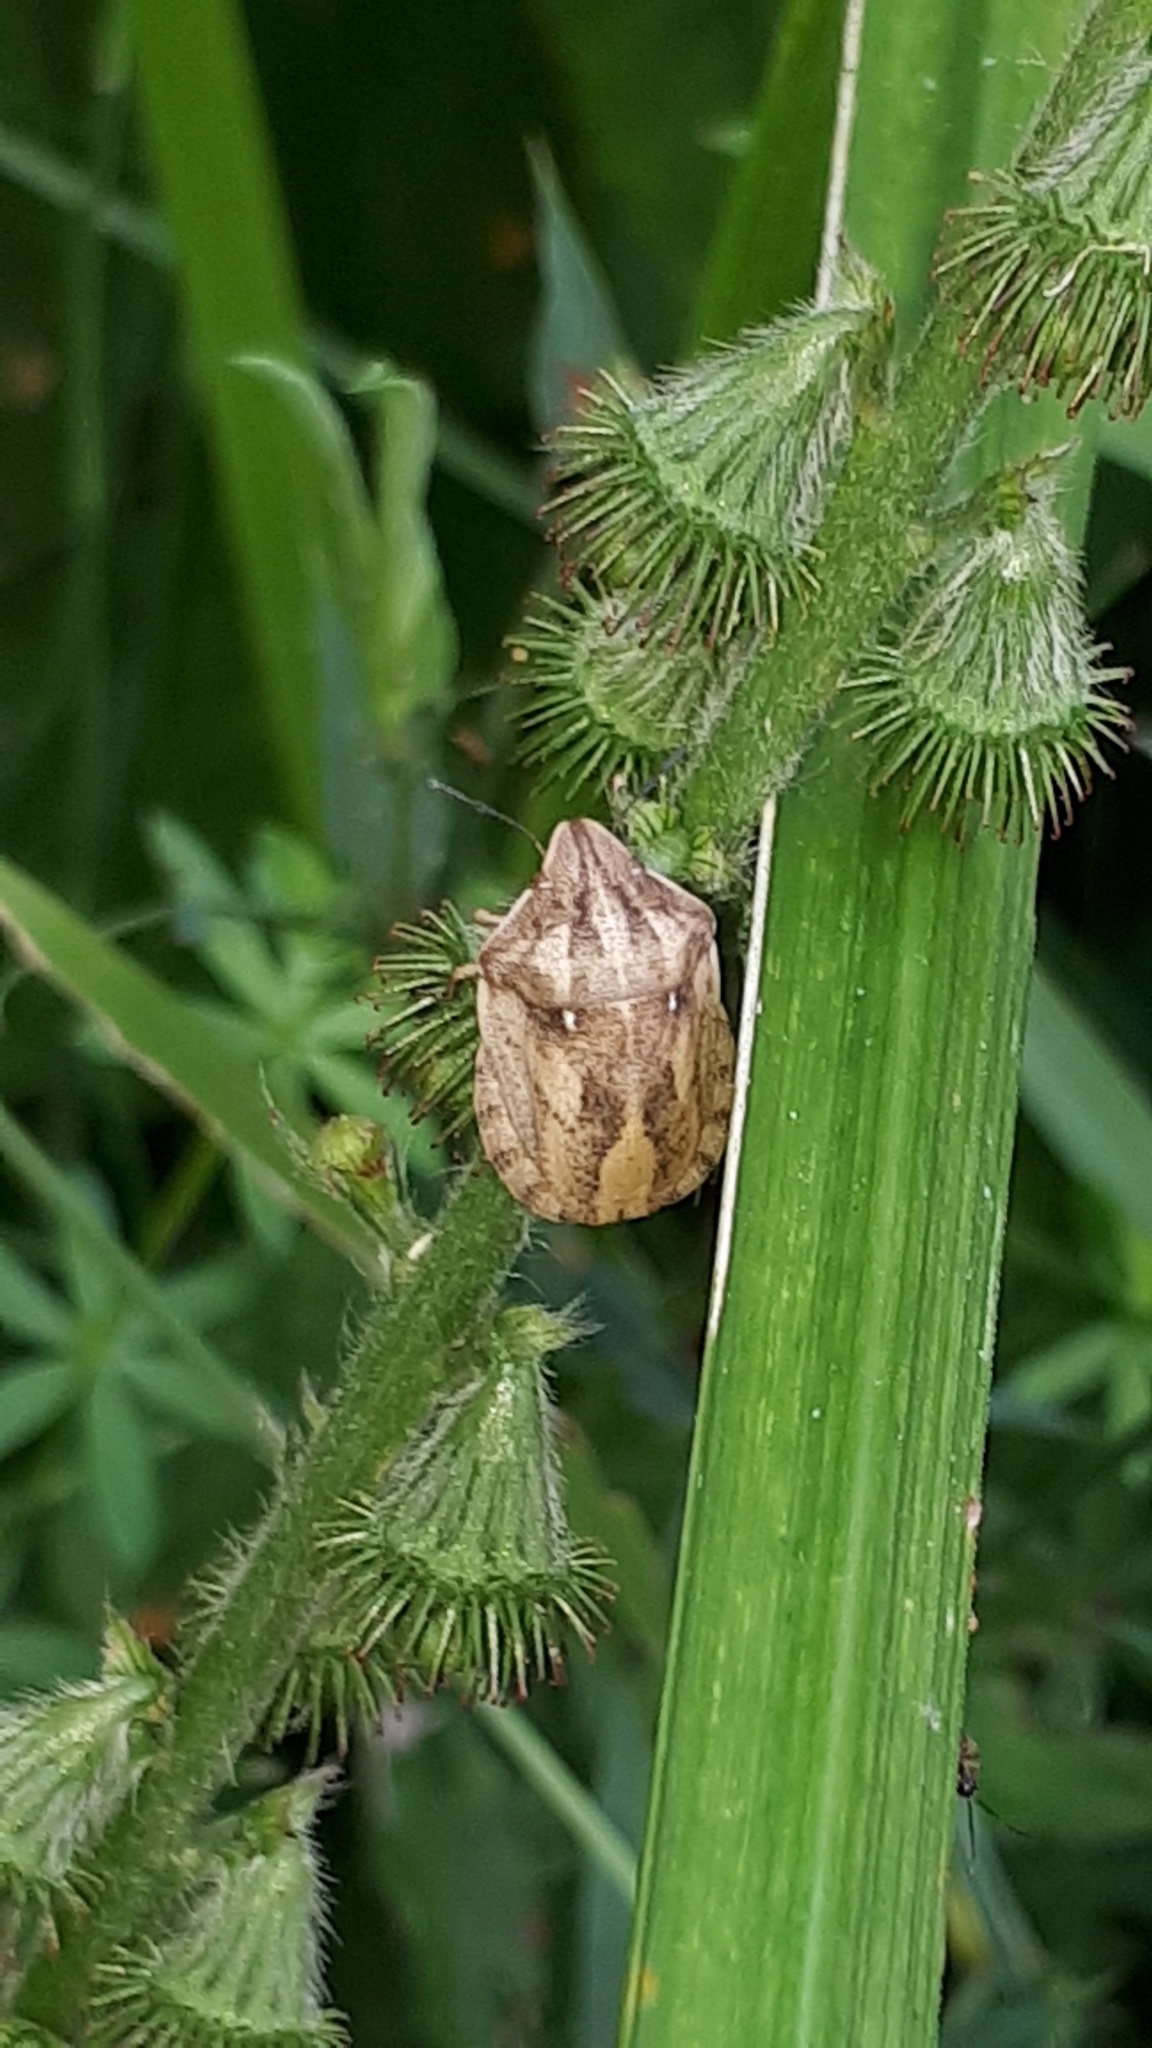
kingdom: Animalia
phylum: Arthropoda
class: Insecta
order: Hemiptera
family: Scutelleridae
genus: Eurygaster
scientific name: Eurygaster maura
